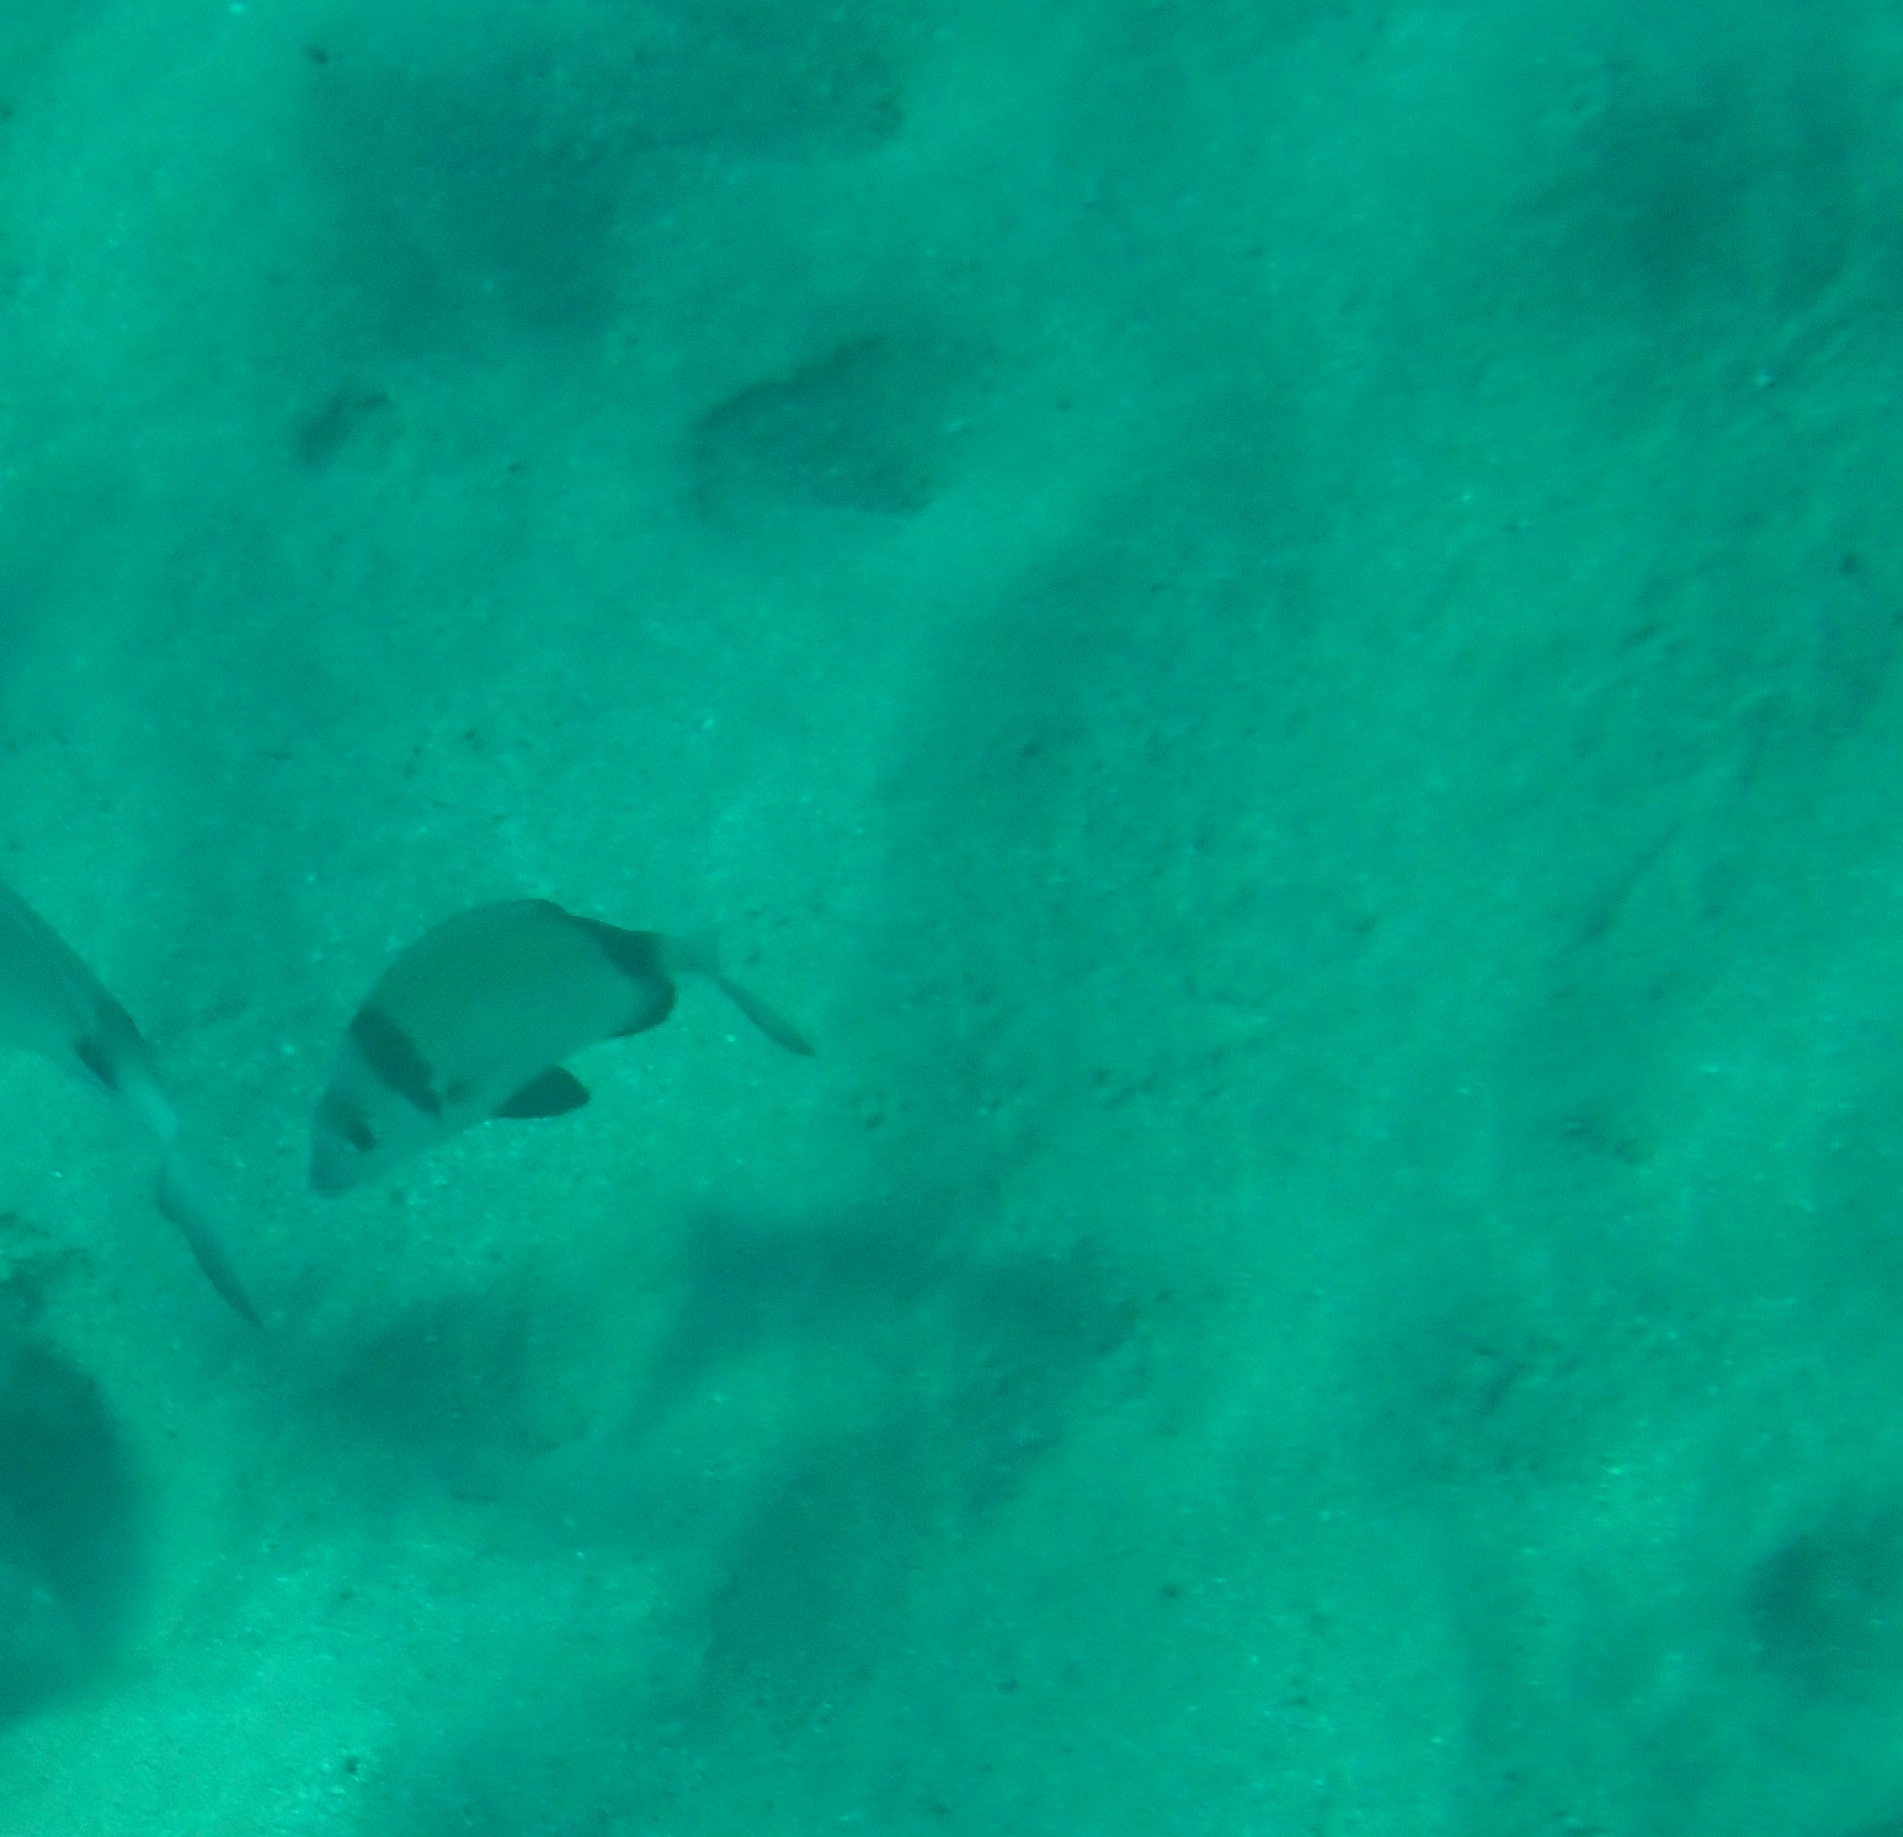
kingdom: Animalia
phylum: Chordata
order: Perciformes
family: Sparidae
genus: Diplodus
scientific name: Diplodus vulgaris
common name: Common two-banded seabream
